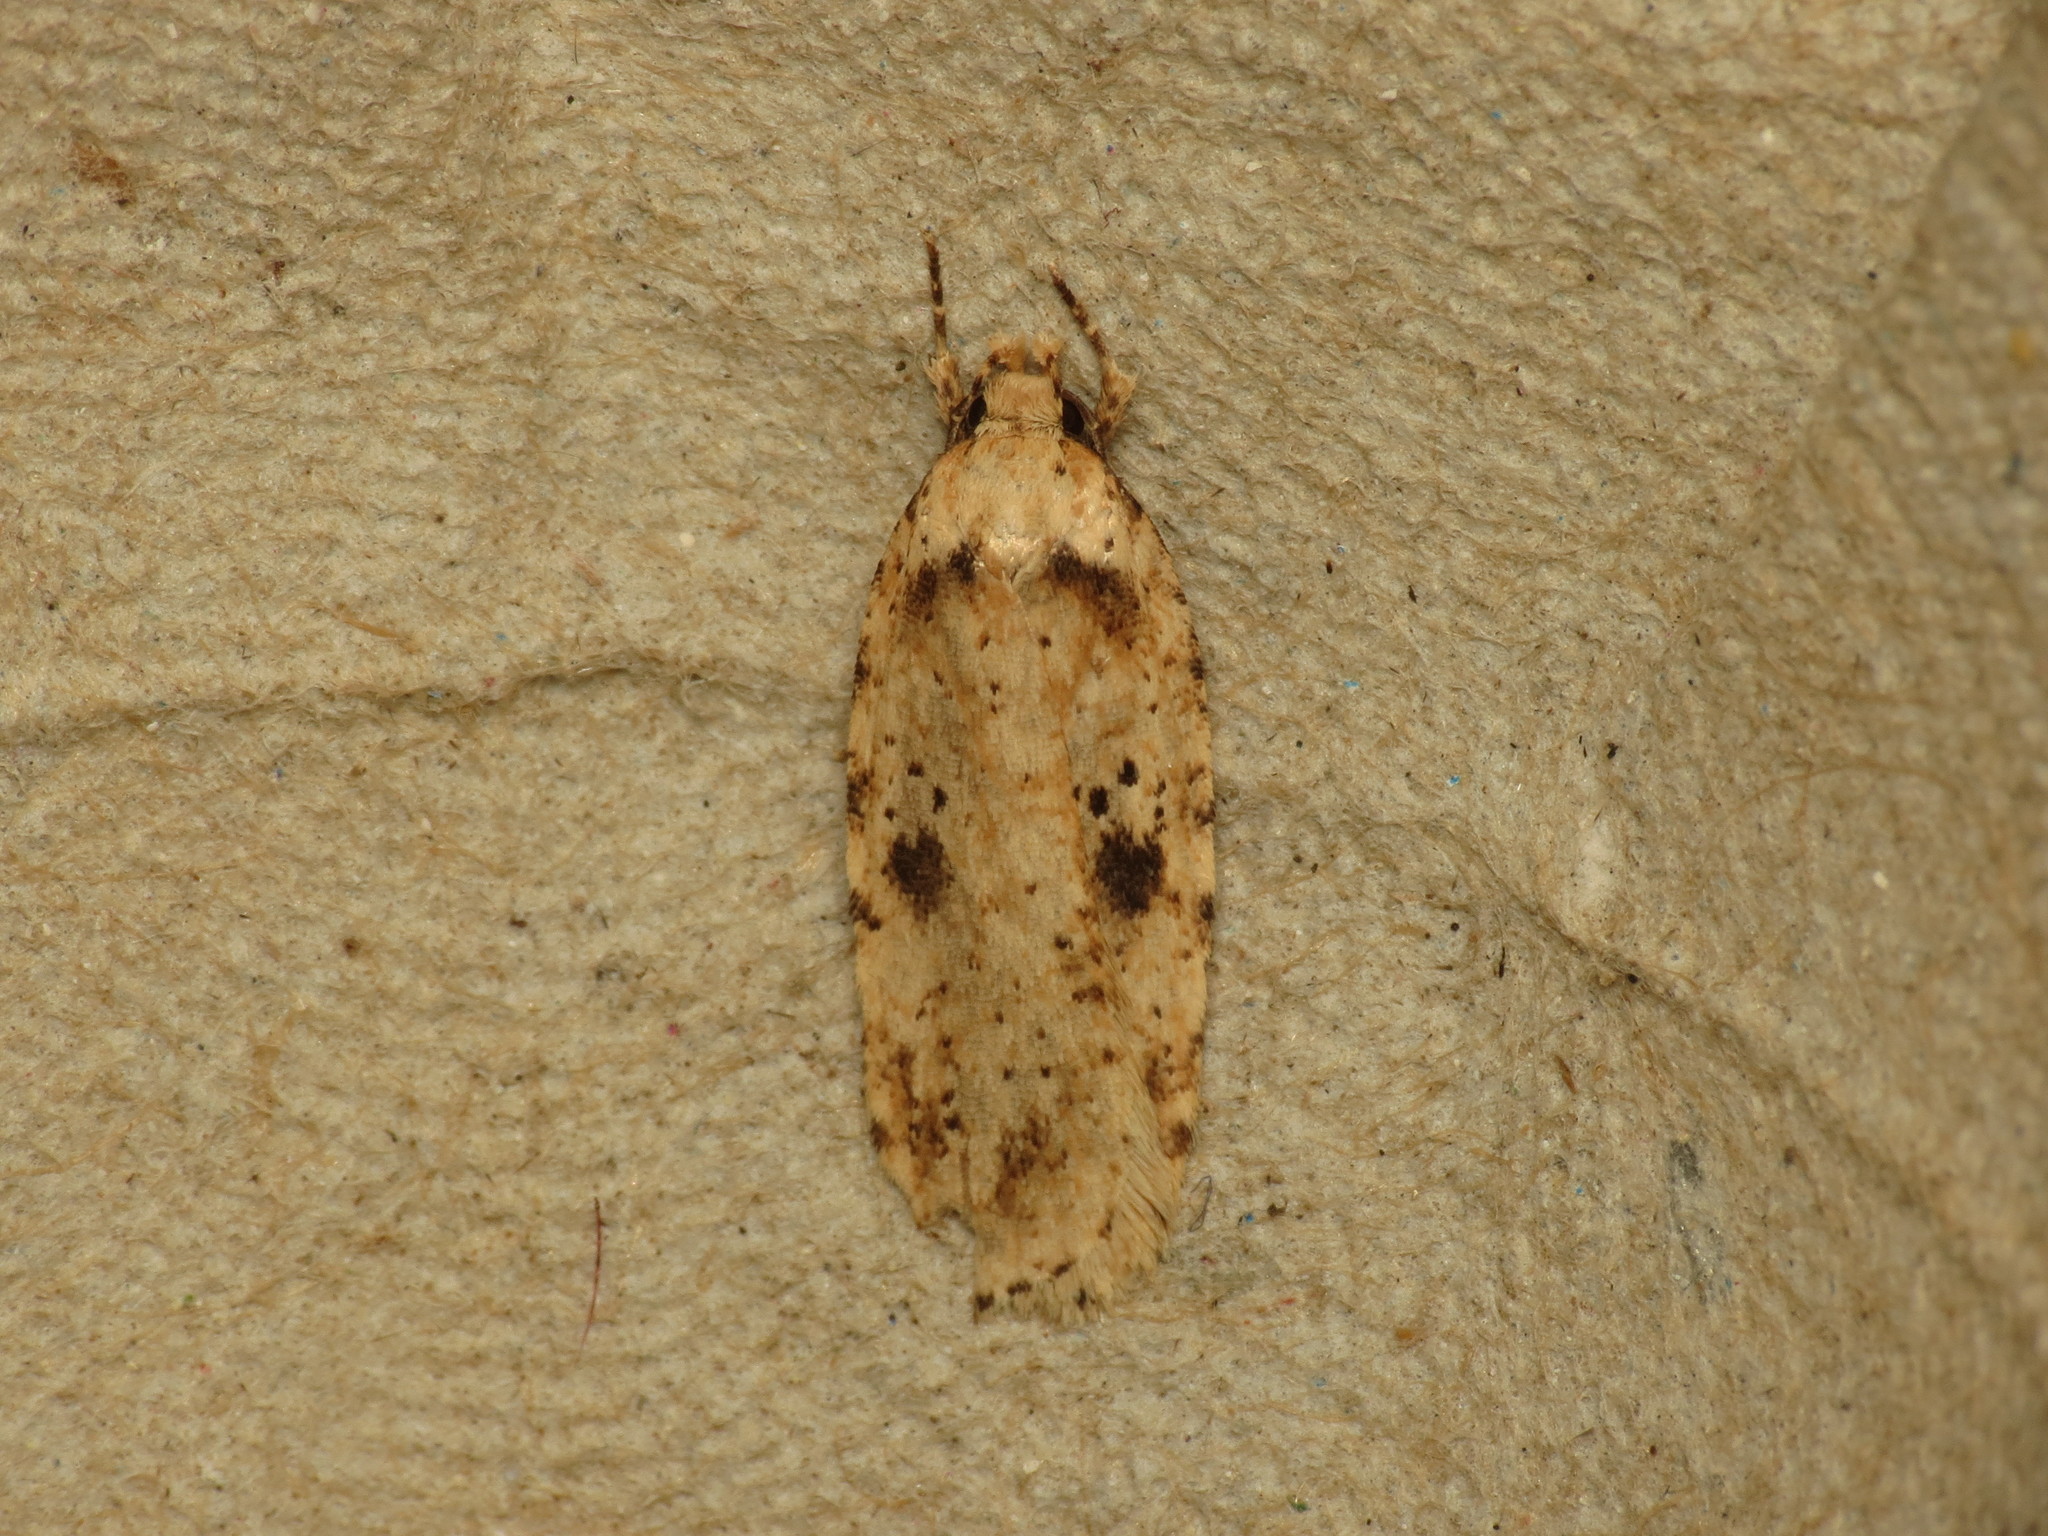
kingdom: Animalia
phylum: Arthropoda
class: Insecta
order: Lepidoptera
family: Depressariidae
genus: Agonopterix
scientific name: Agonopterix arenella
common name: Brindled flat-body
